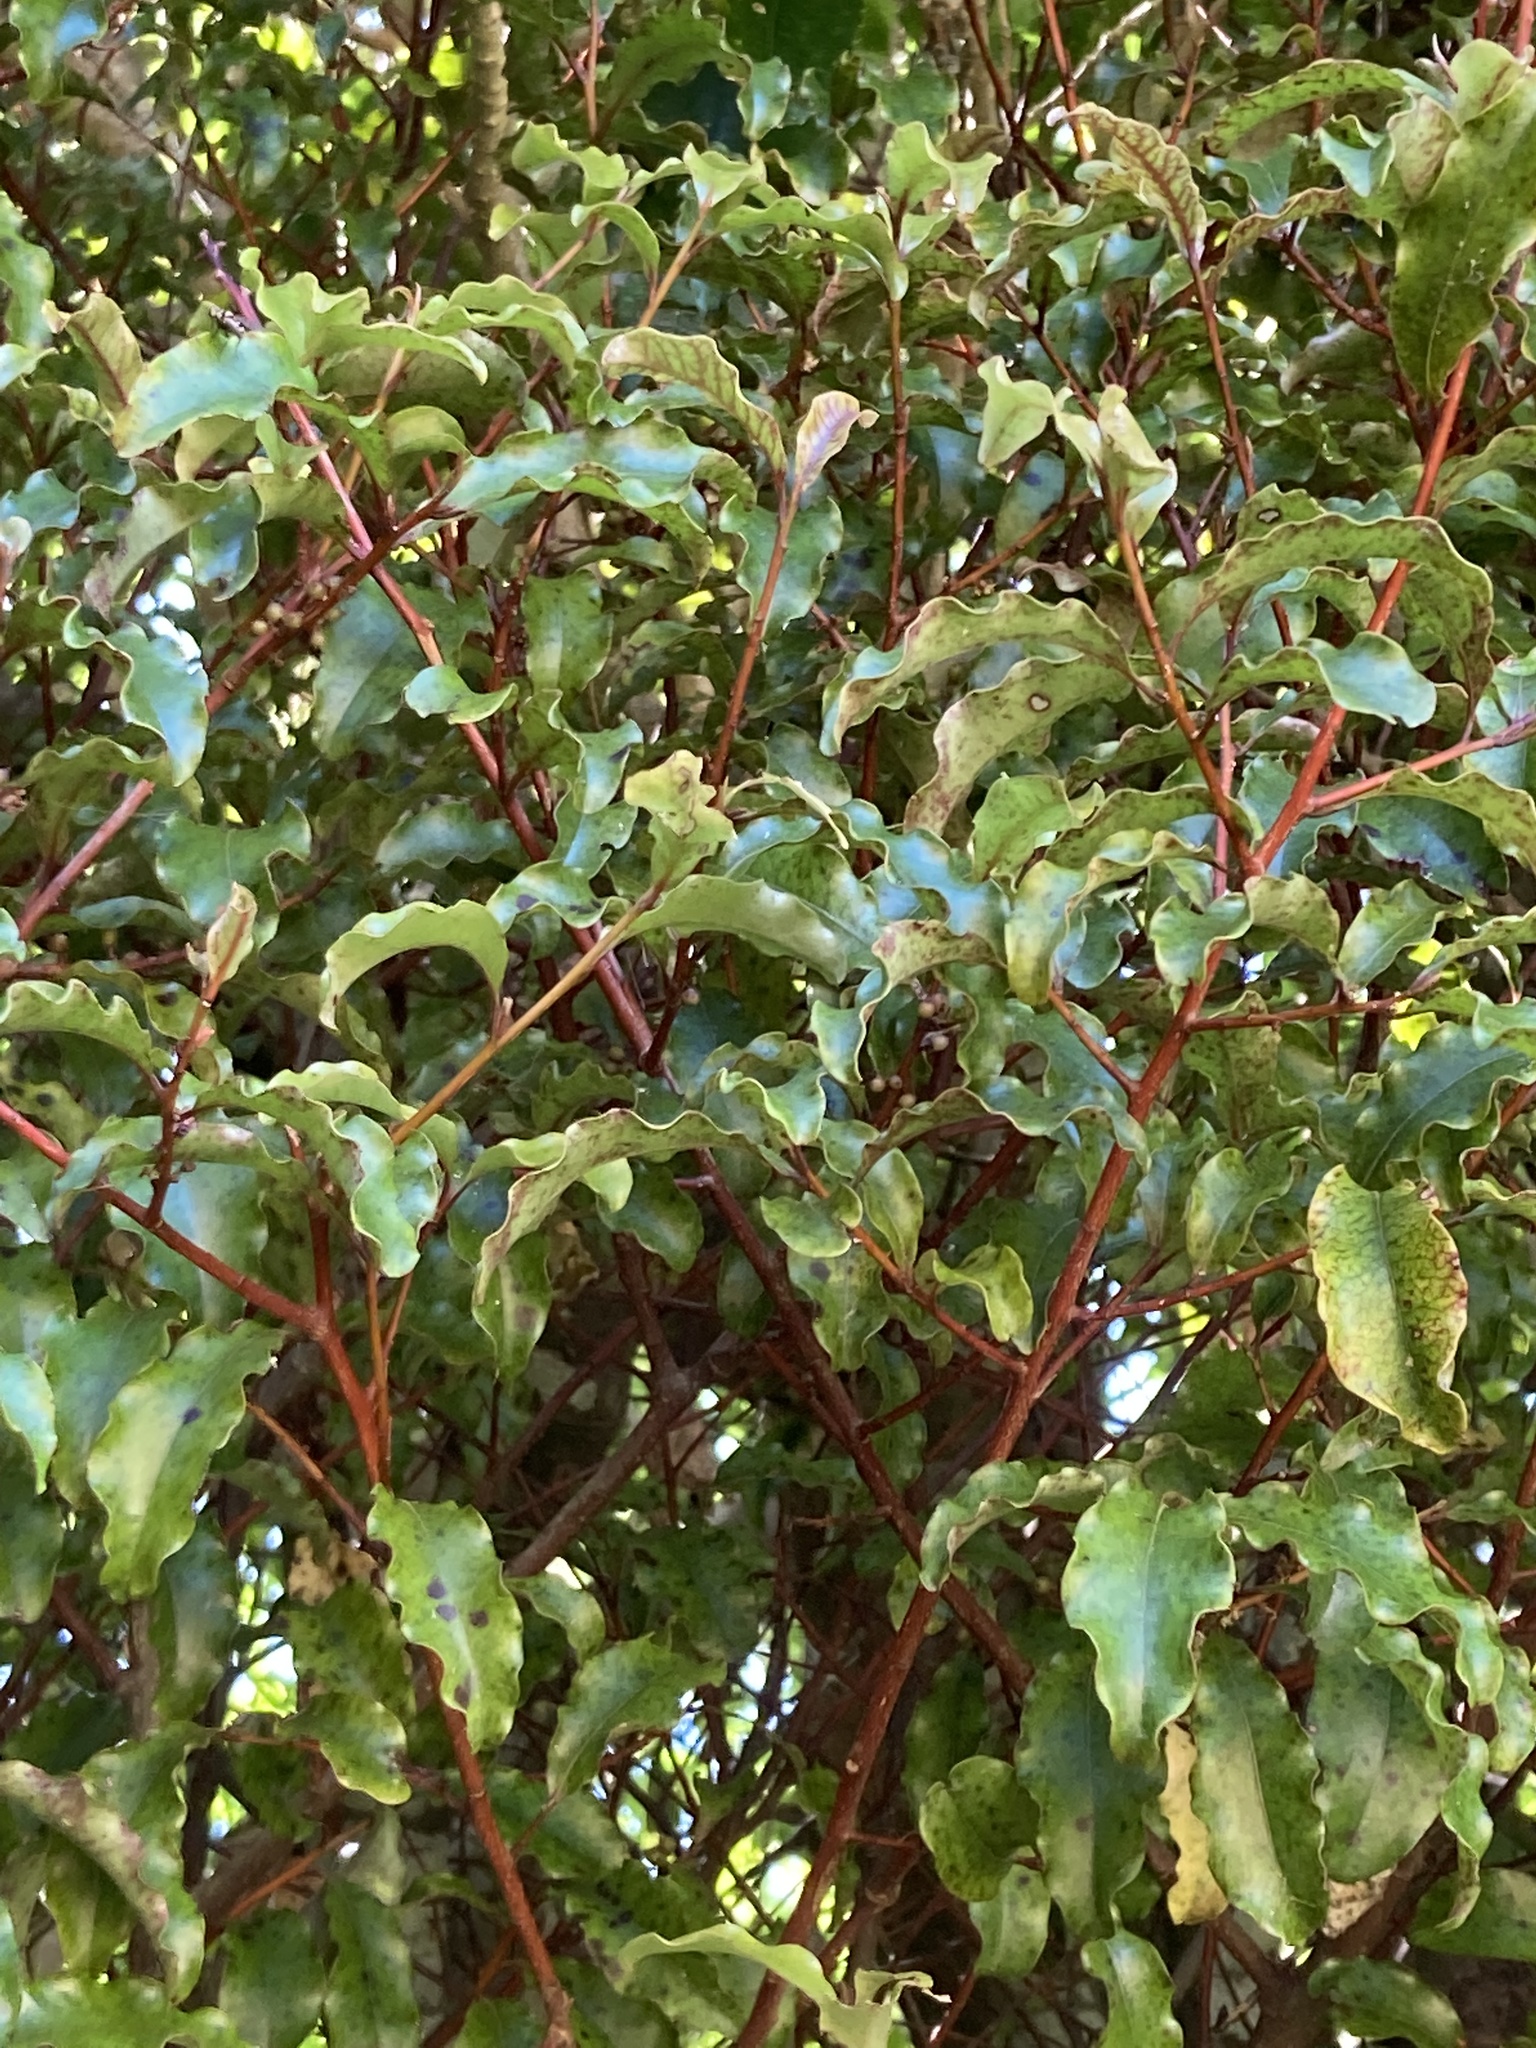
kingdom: Plantae
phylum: Tracheophyta
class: Magnoliopsida
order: Ericales
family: Primulaceae
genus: Myrsine
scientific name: Myrsine australis
